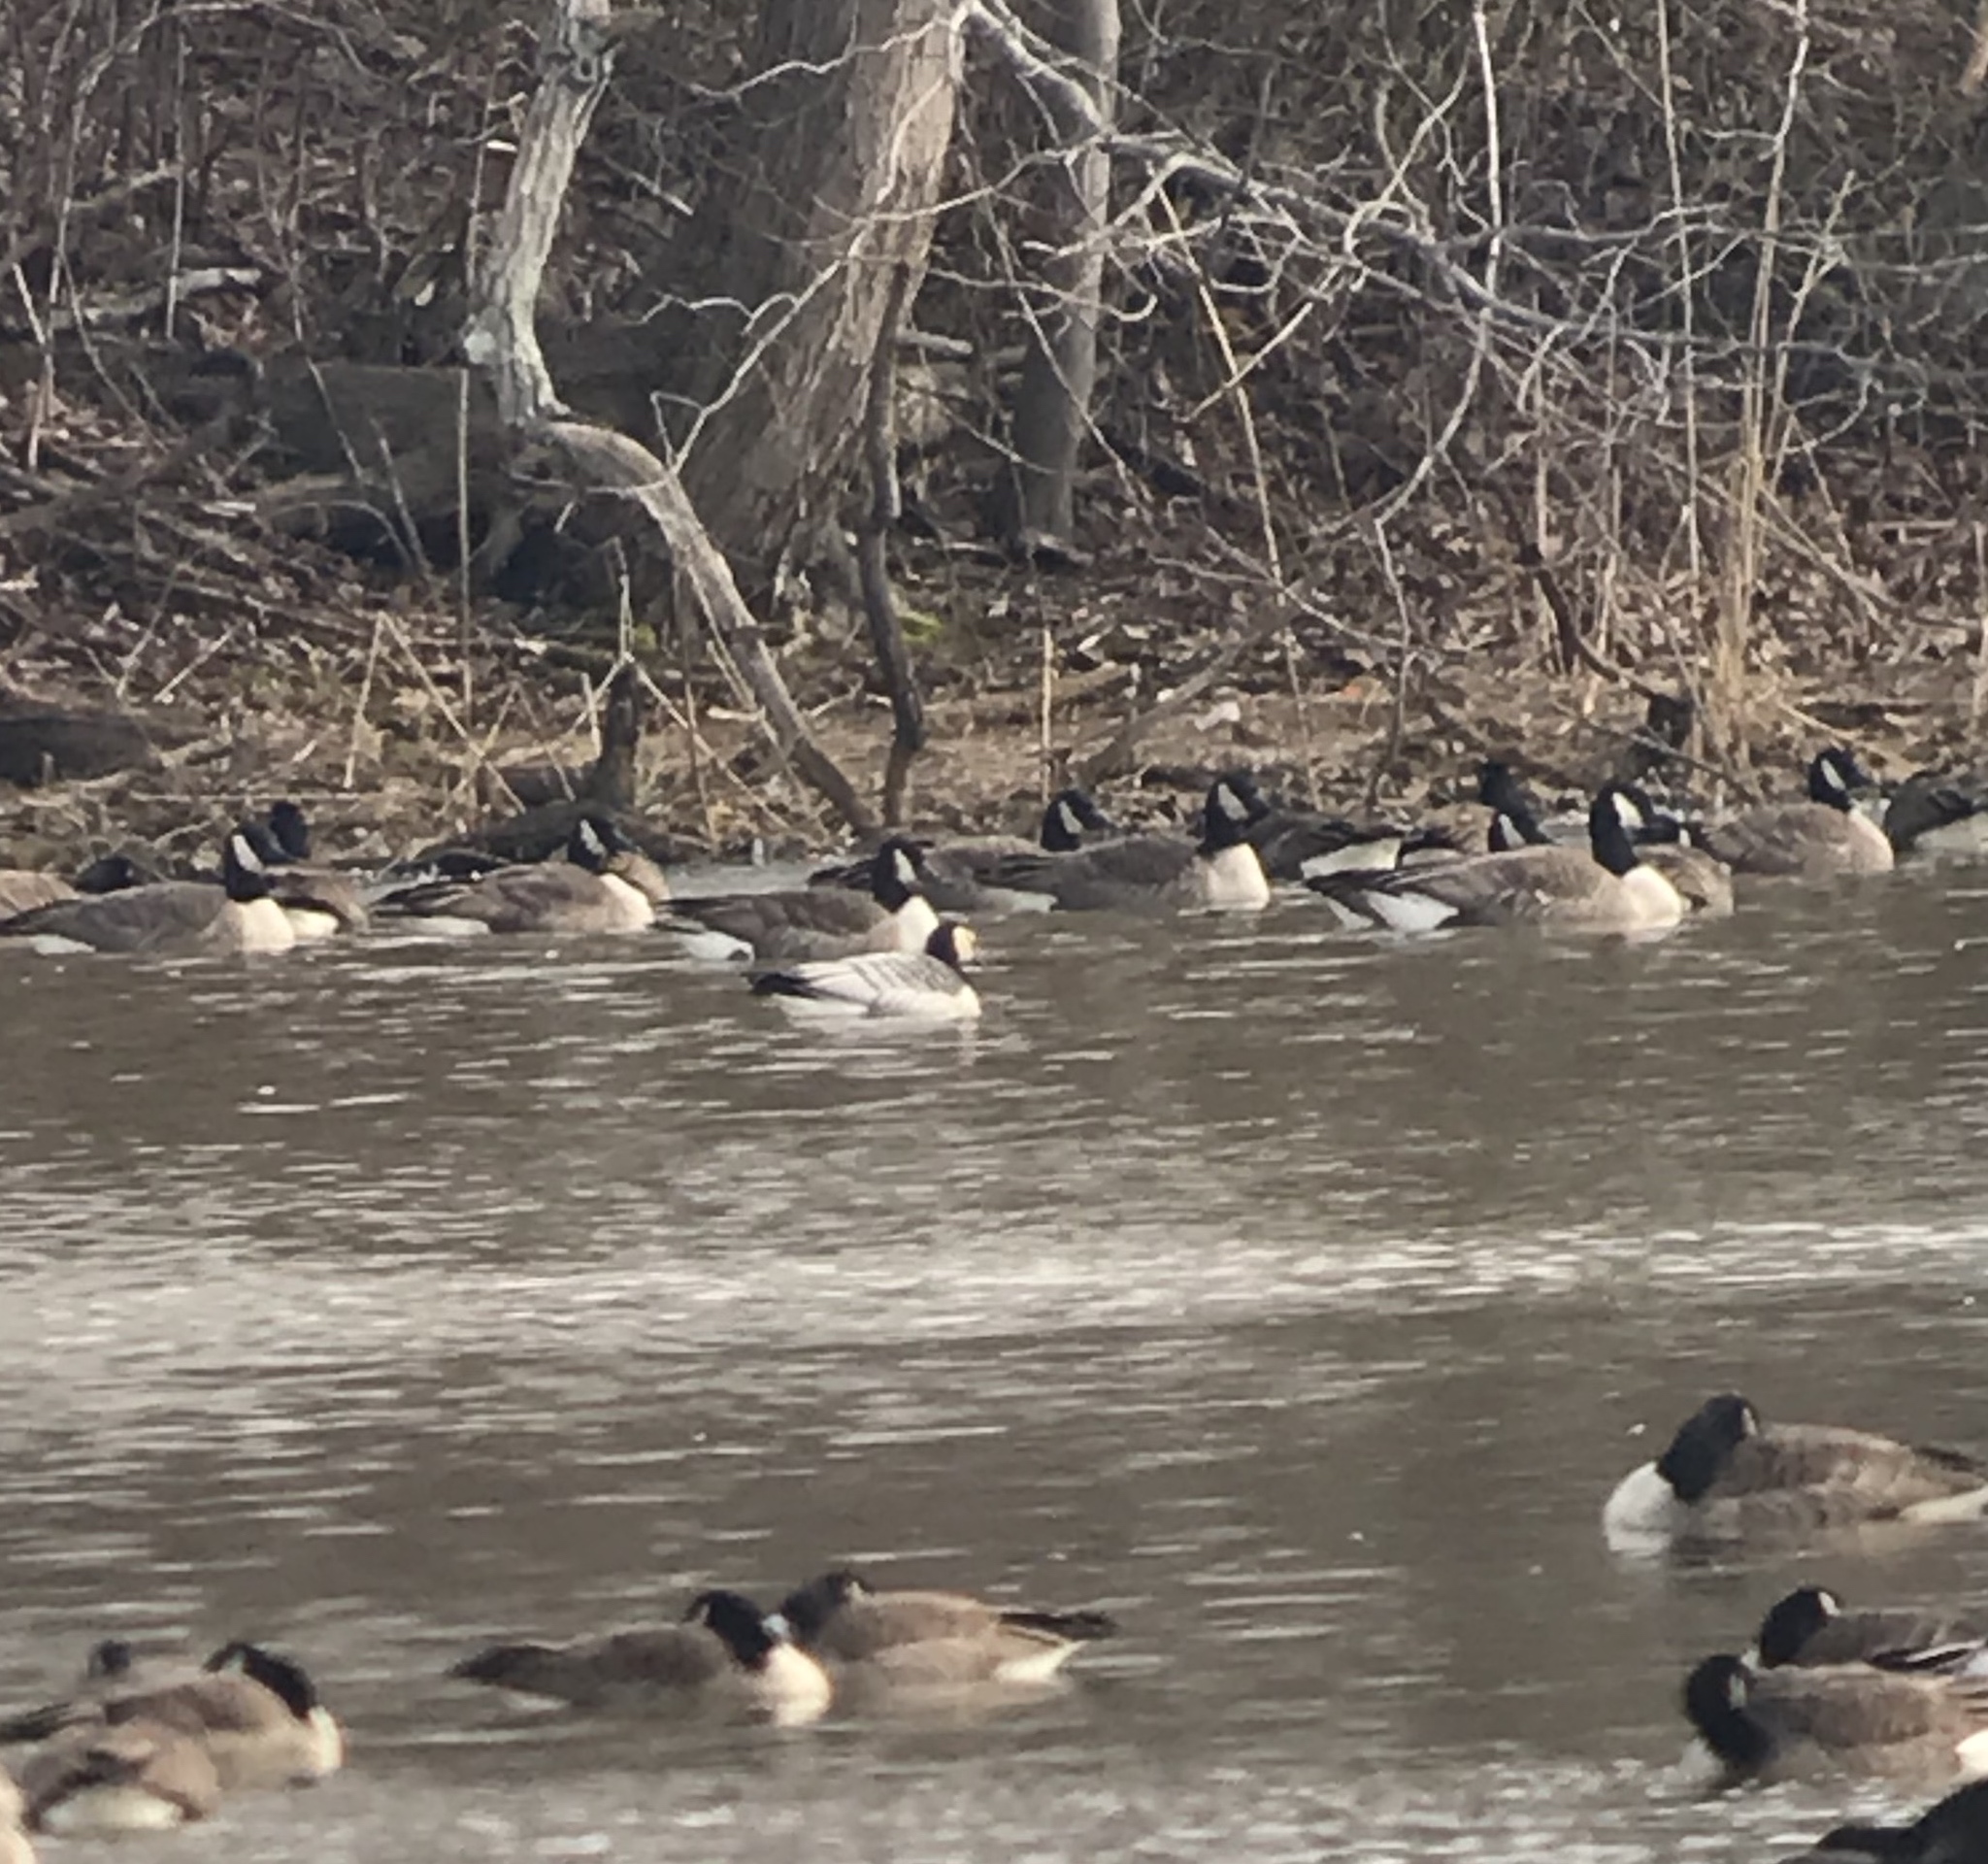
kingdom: Animalia
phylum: Chordata
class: Aves
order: Anseriformes
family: Anatidae
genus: Branta
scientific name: Branta leucopsis
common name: Barnacle goose
